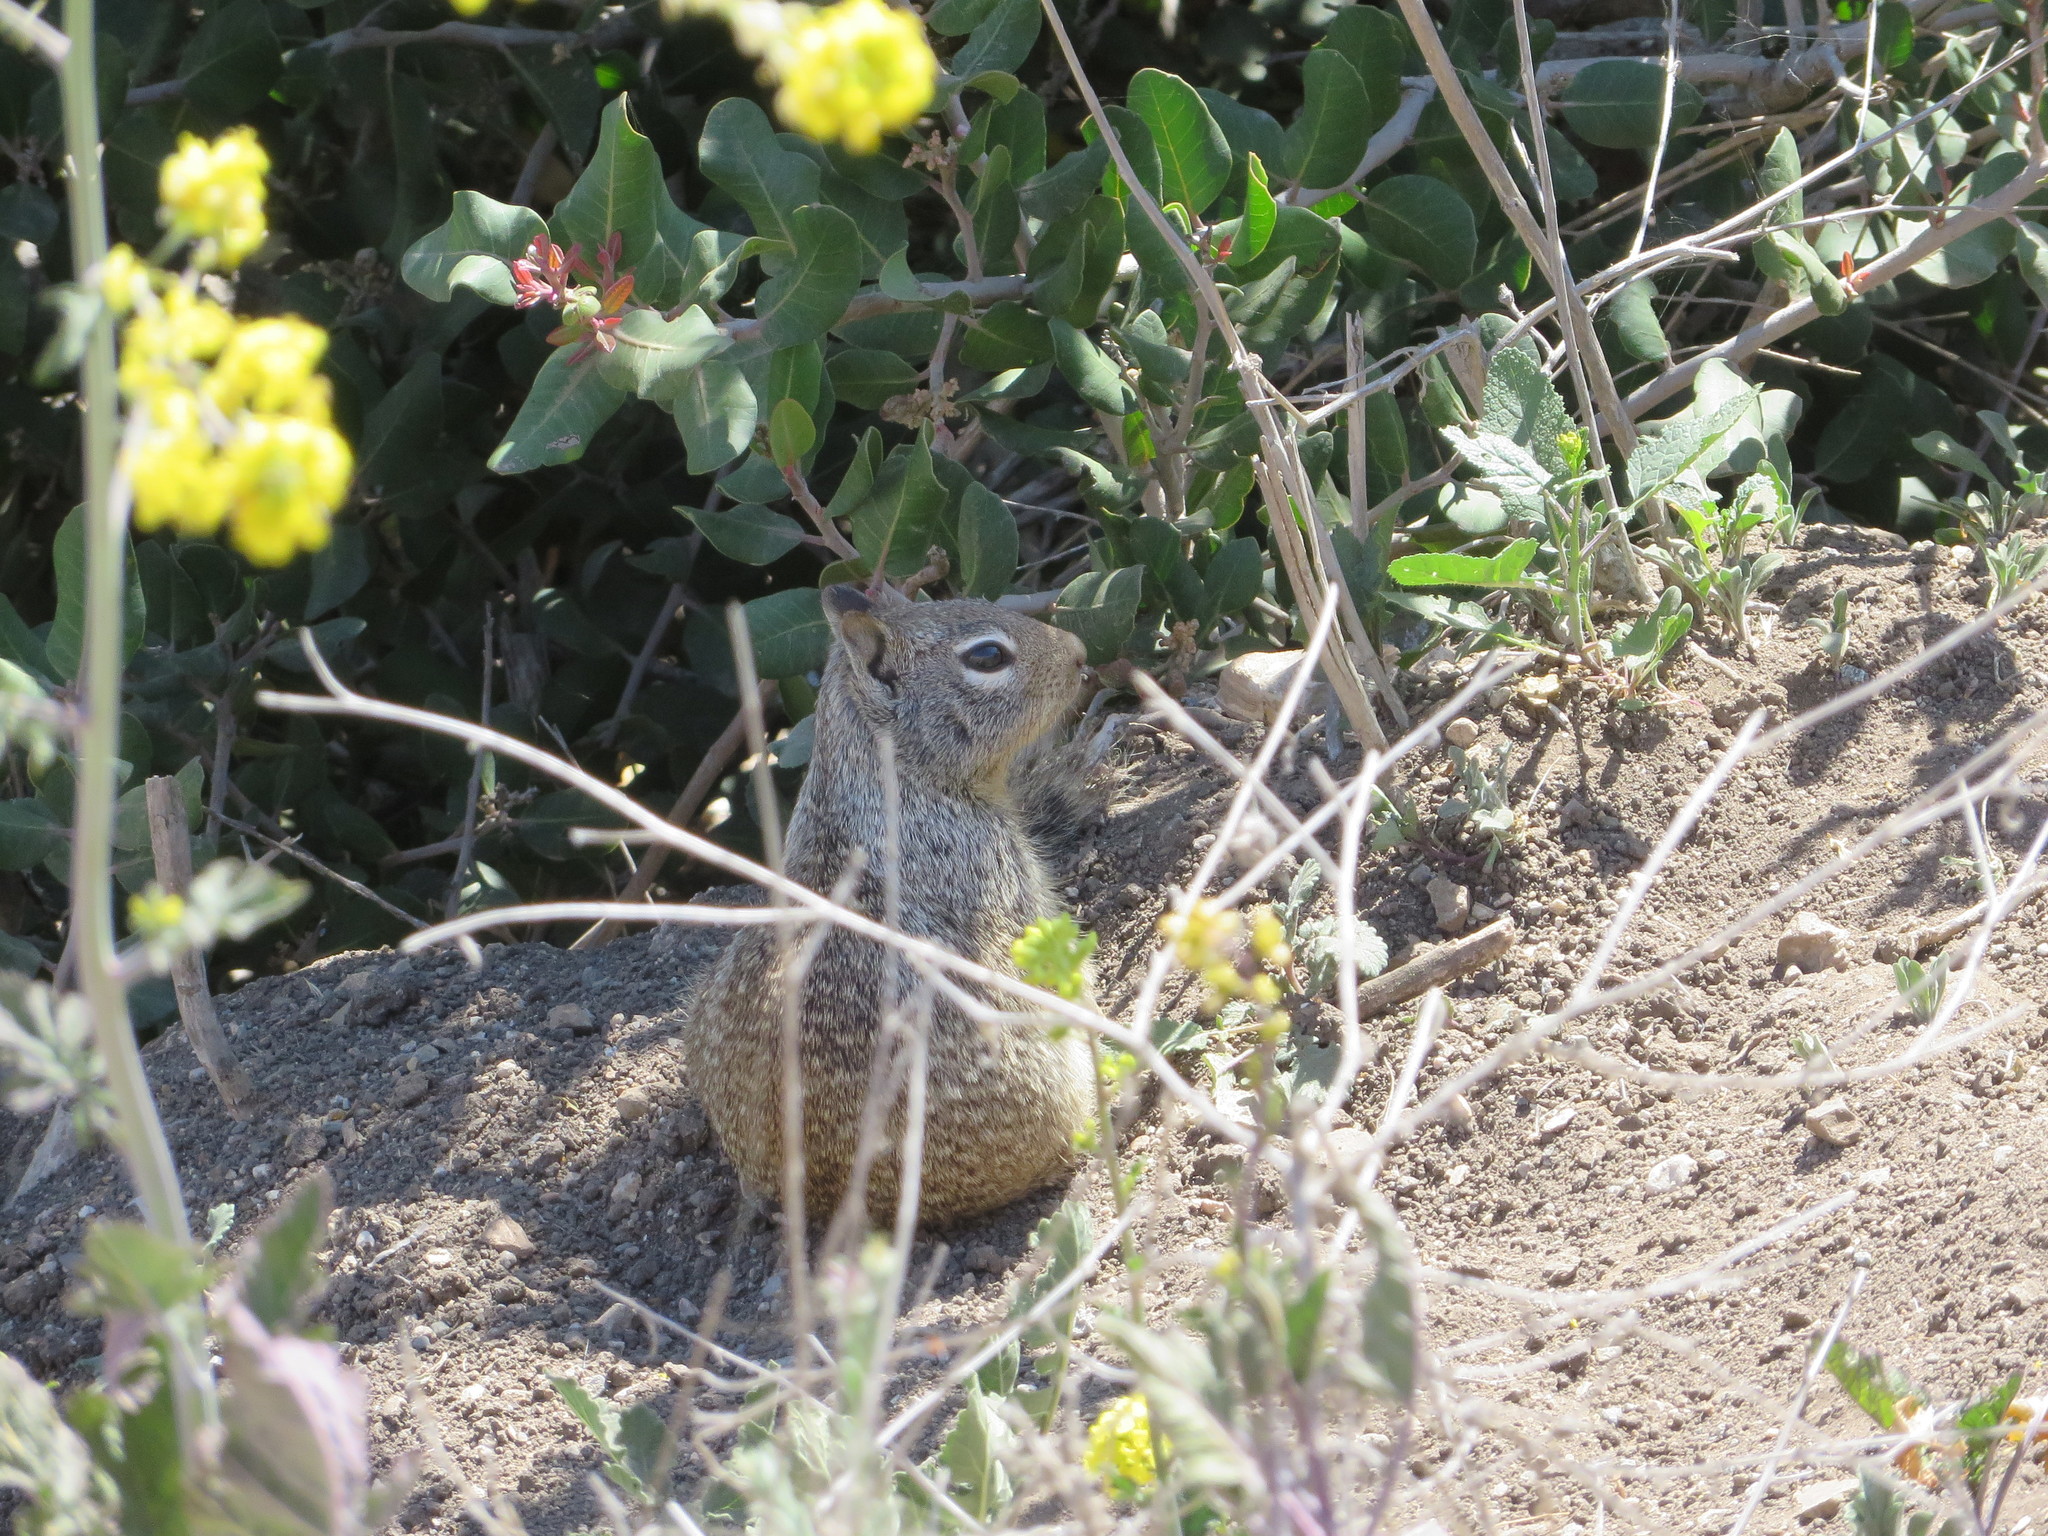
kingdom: Animalia
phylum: Chordata
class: Mammalia
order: Rodentia
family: Sciuridae
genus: Otospermophilus
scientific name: Otospermophilus beecheyi
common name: California ground squirrel
